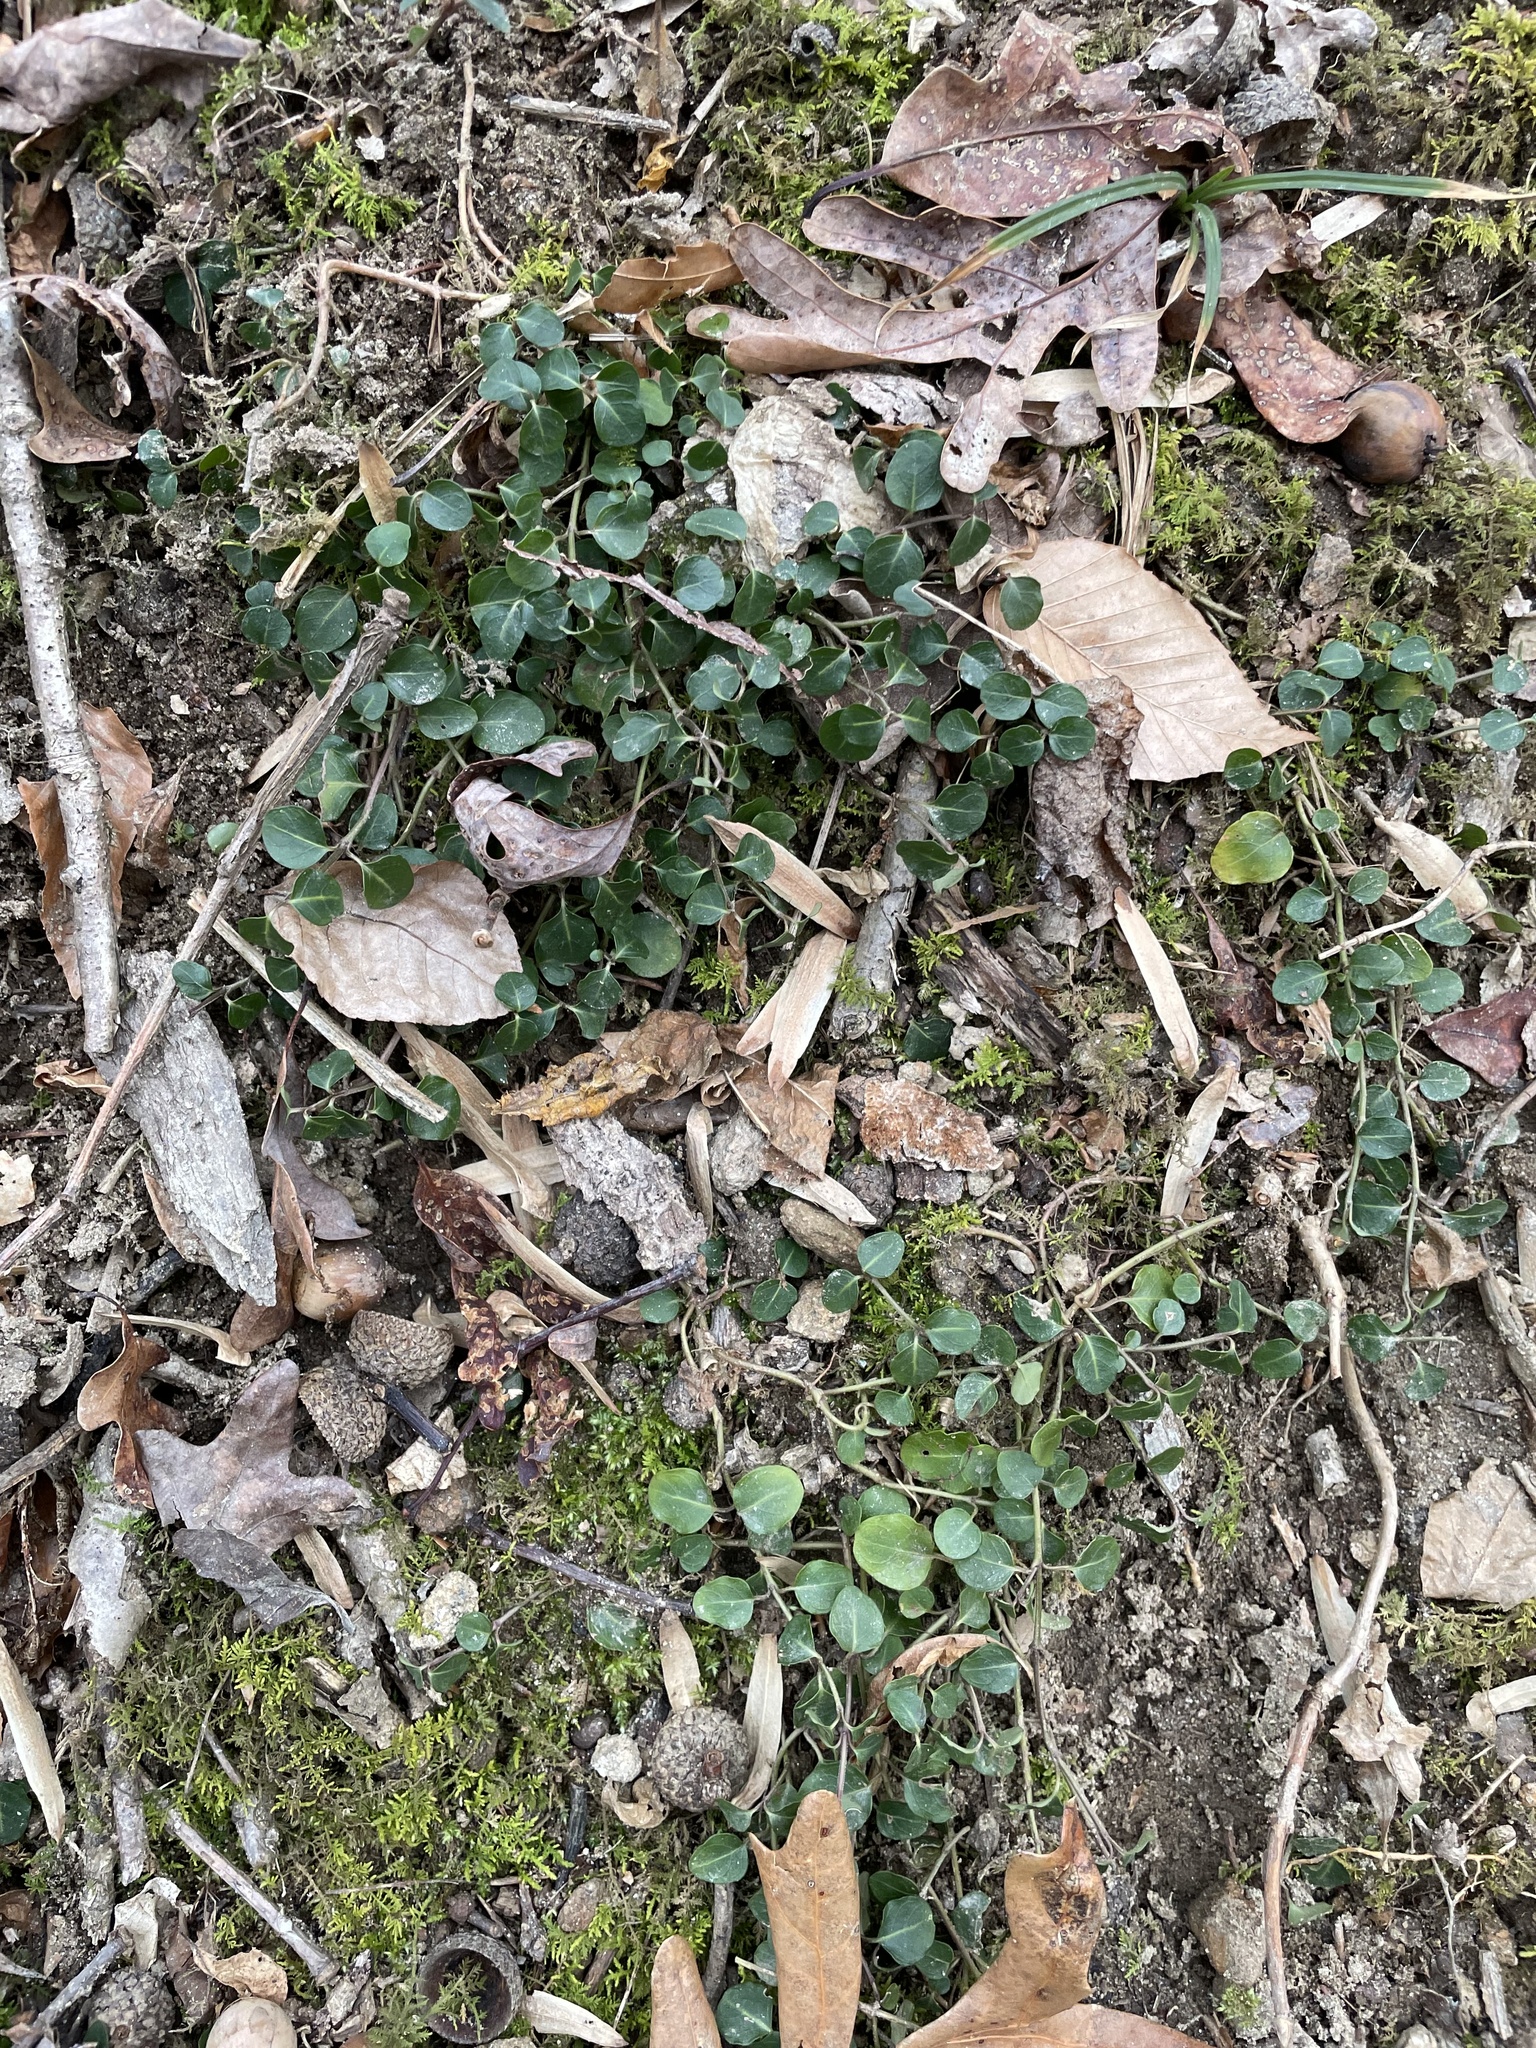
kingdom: Plantae
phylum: Tracheophyta
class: Magnoliopsida
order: Gentianales
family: Rubiaceae
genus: Mitchella
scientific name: Mitchella repens
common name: Partridge-berry
